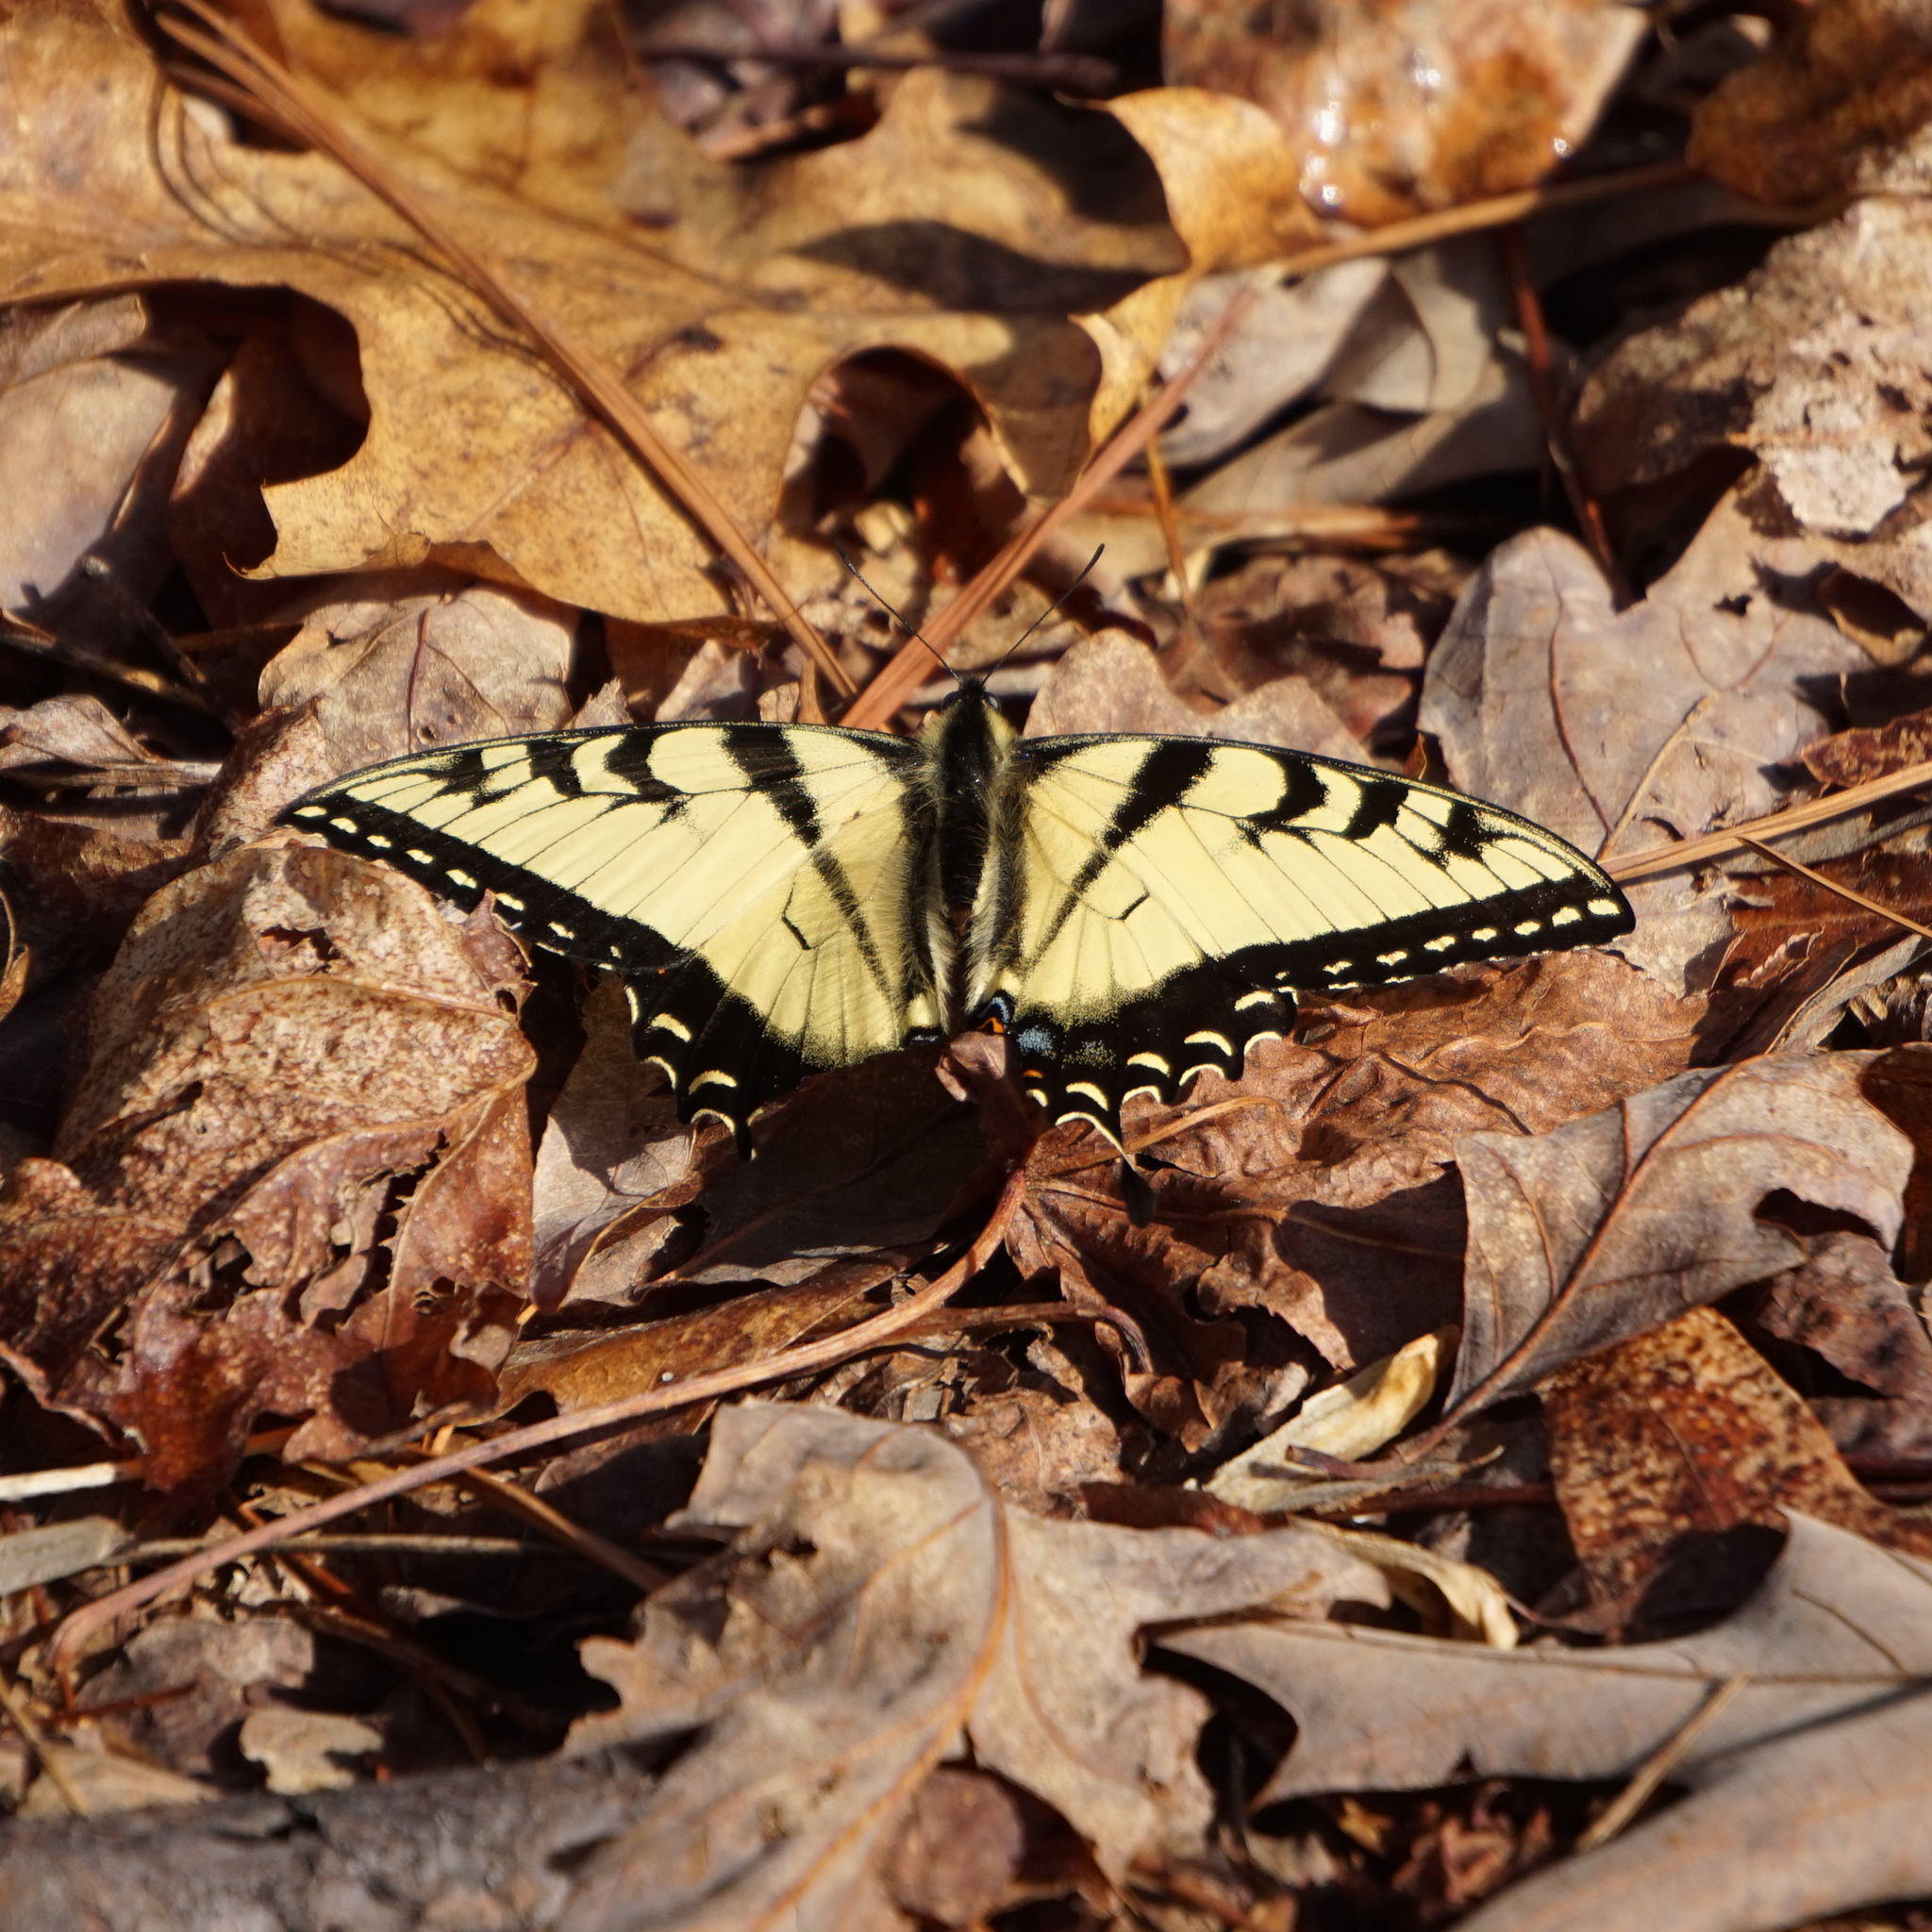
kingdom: Animalia
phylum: Arthropoda
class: Insecta
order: Lepidoptera
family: Papilionidae
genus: Papilio
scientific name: Papilio glaucus
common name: Tiger swallowtail
